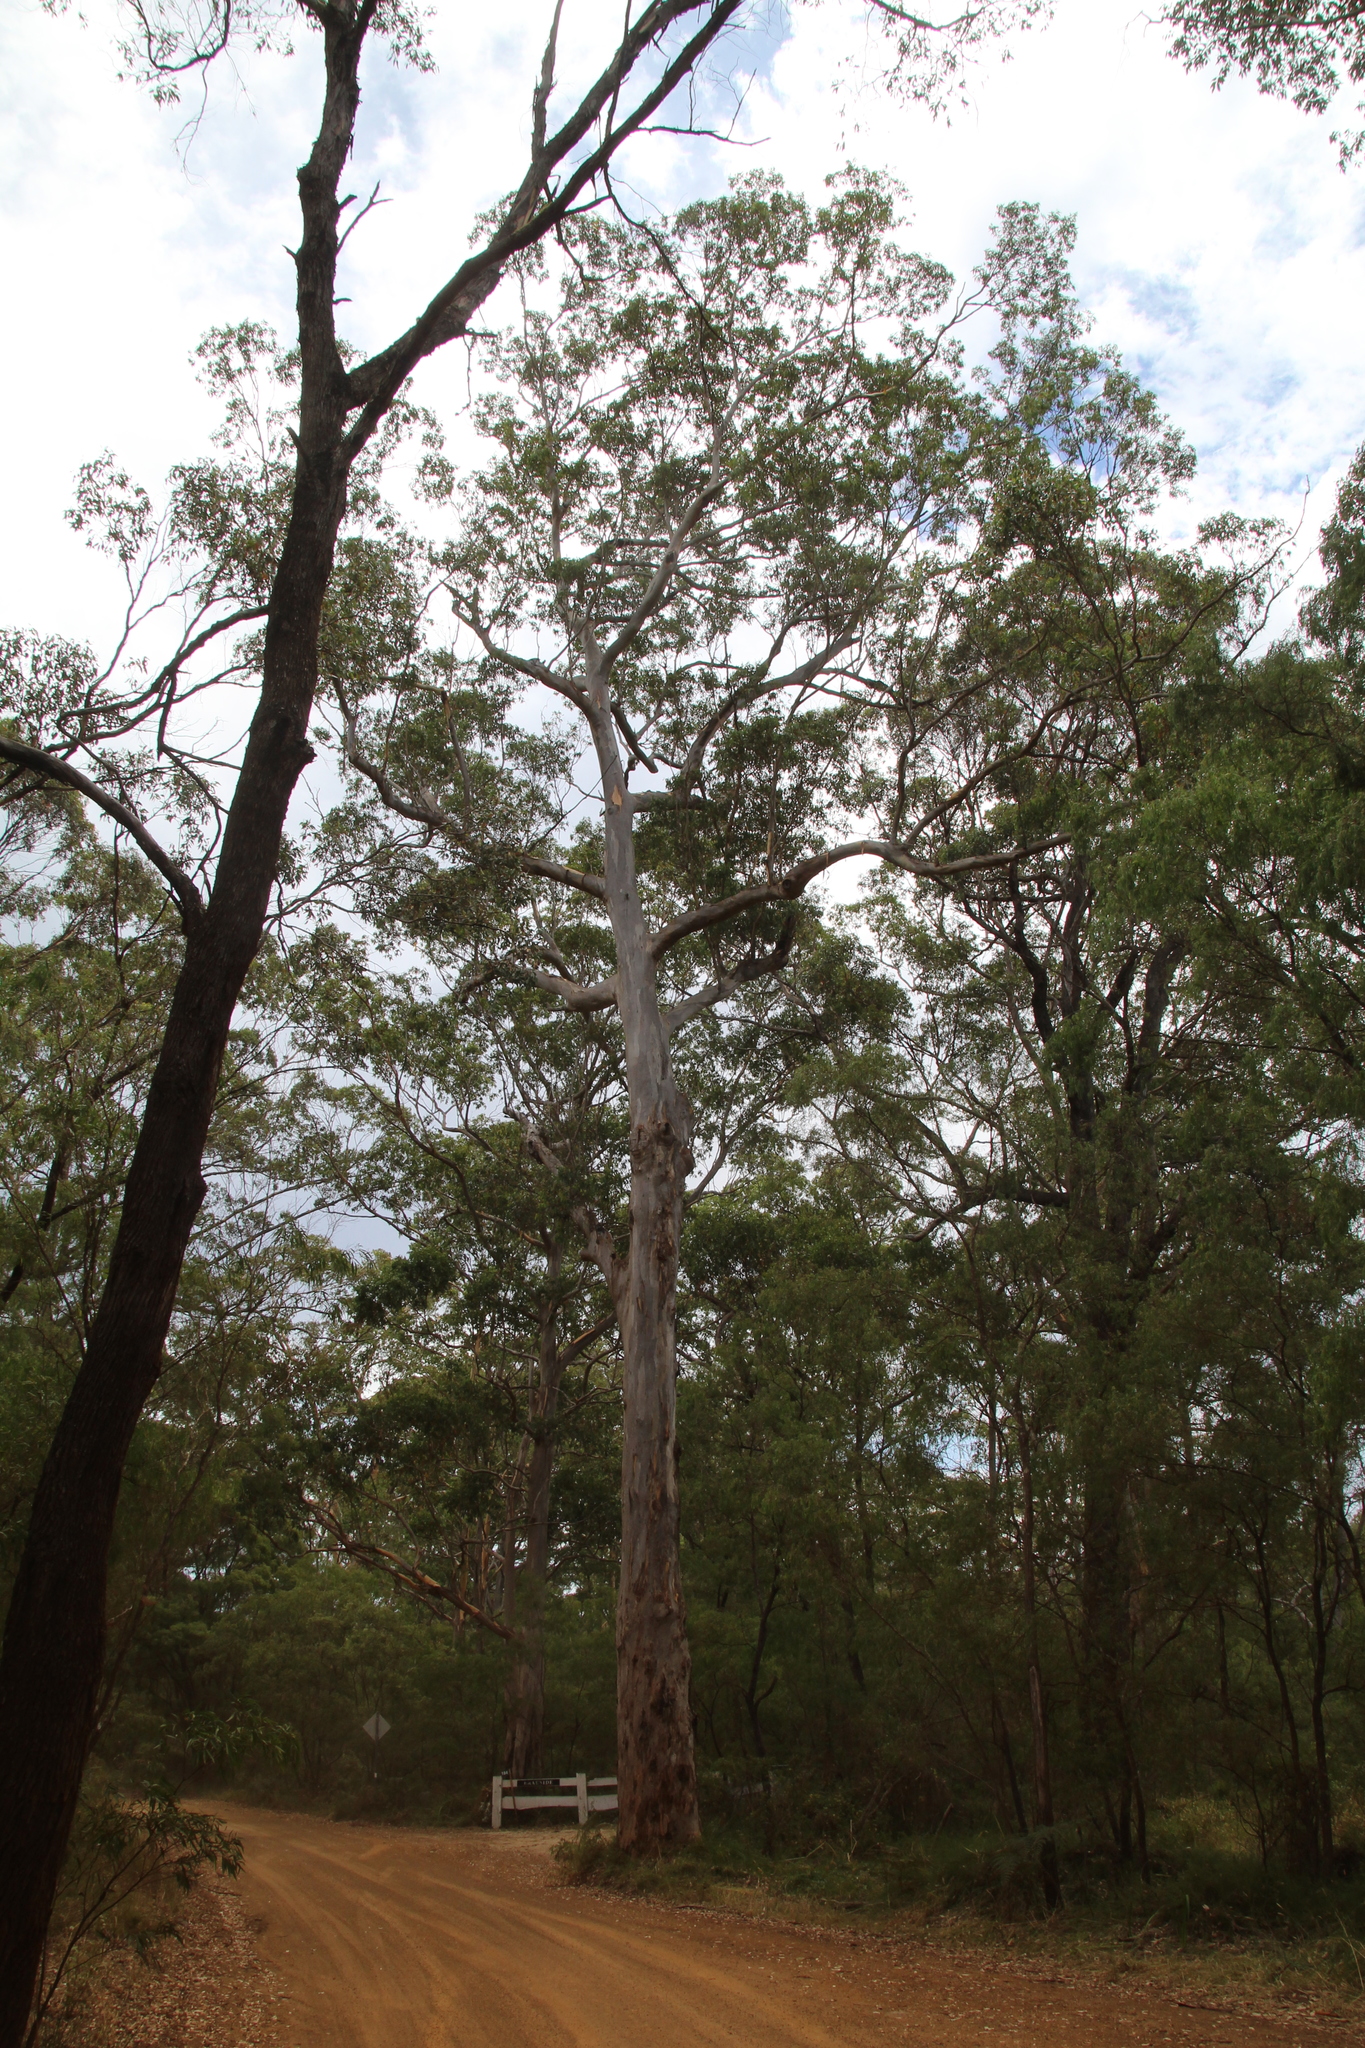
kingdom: Plantae
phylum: Tracheophyta
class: Magnoliopsida
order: Myrtales
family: Myrtaceae
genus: Eucalyptus
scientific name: Eucalyptus diversicolor
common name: Karri
